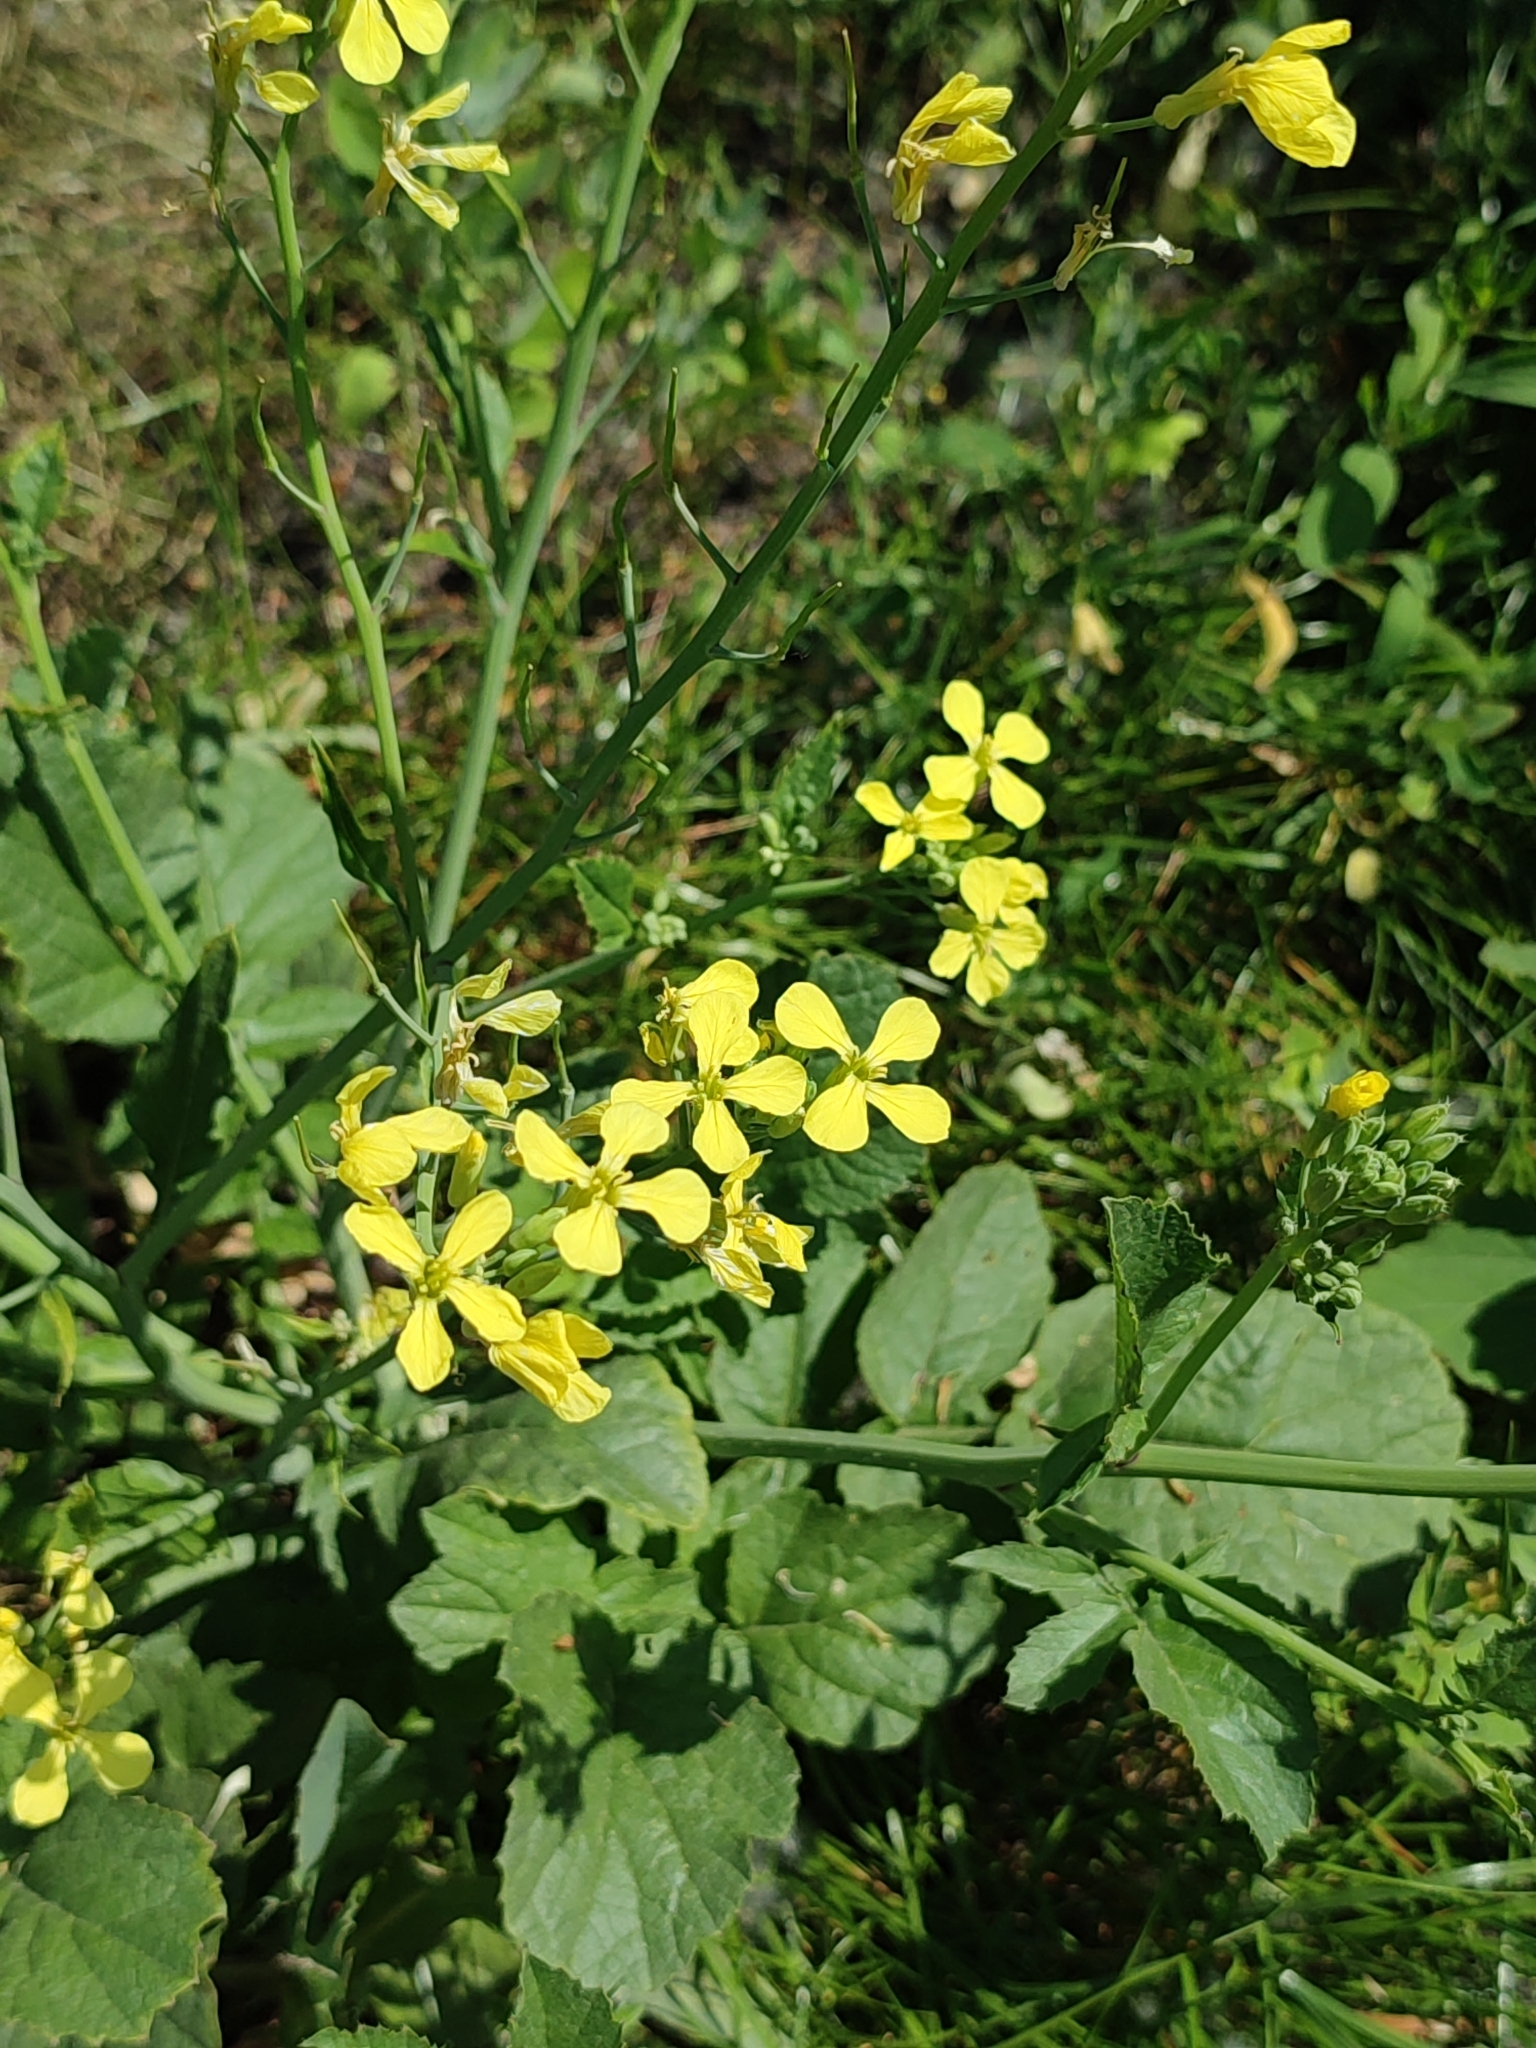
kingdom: Plantae
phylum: Tracheophyta
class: Magnoliopsida
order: Brassicales
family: Brassicaceae
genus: Brassica
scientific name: Brassica napus
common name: Rape
